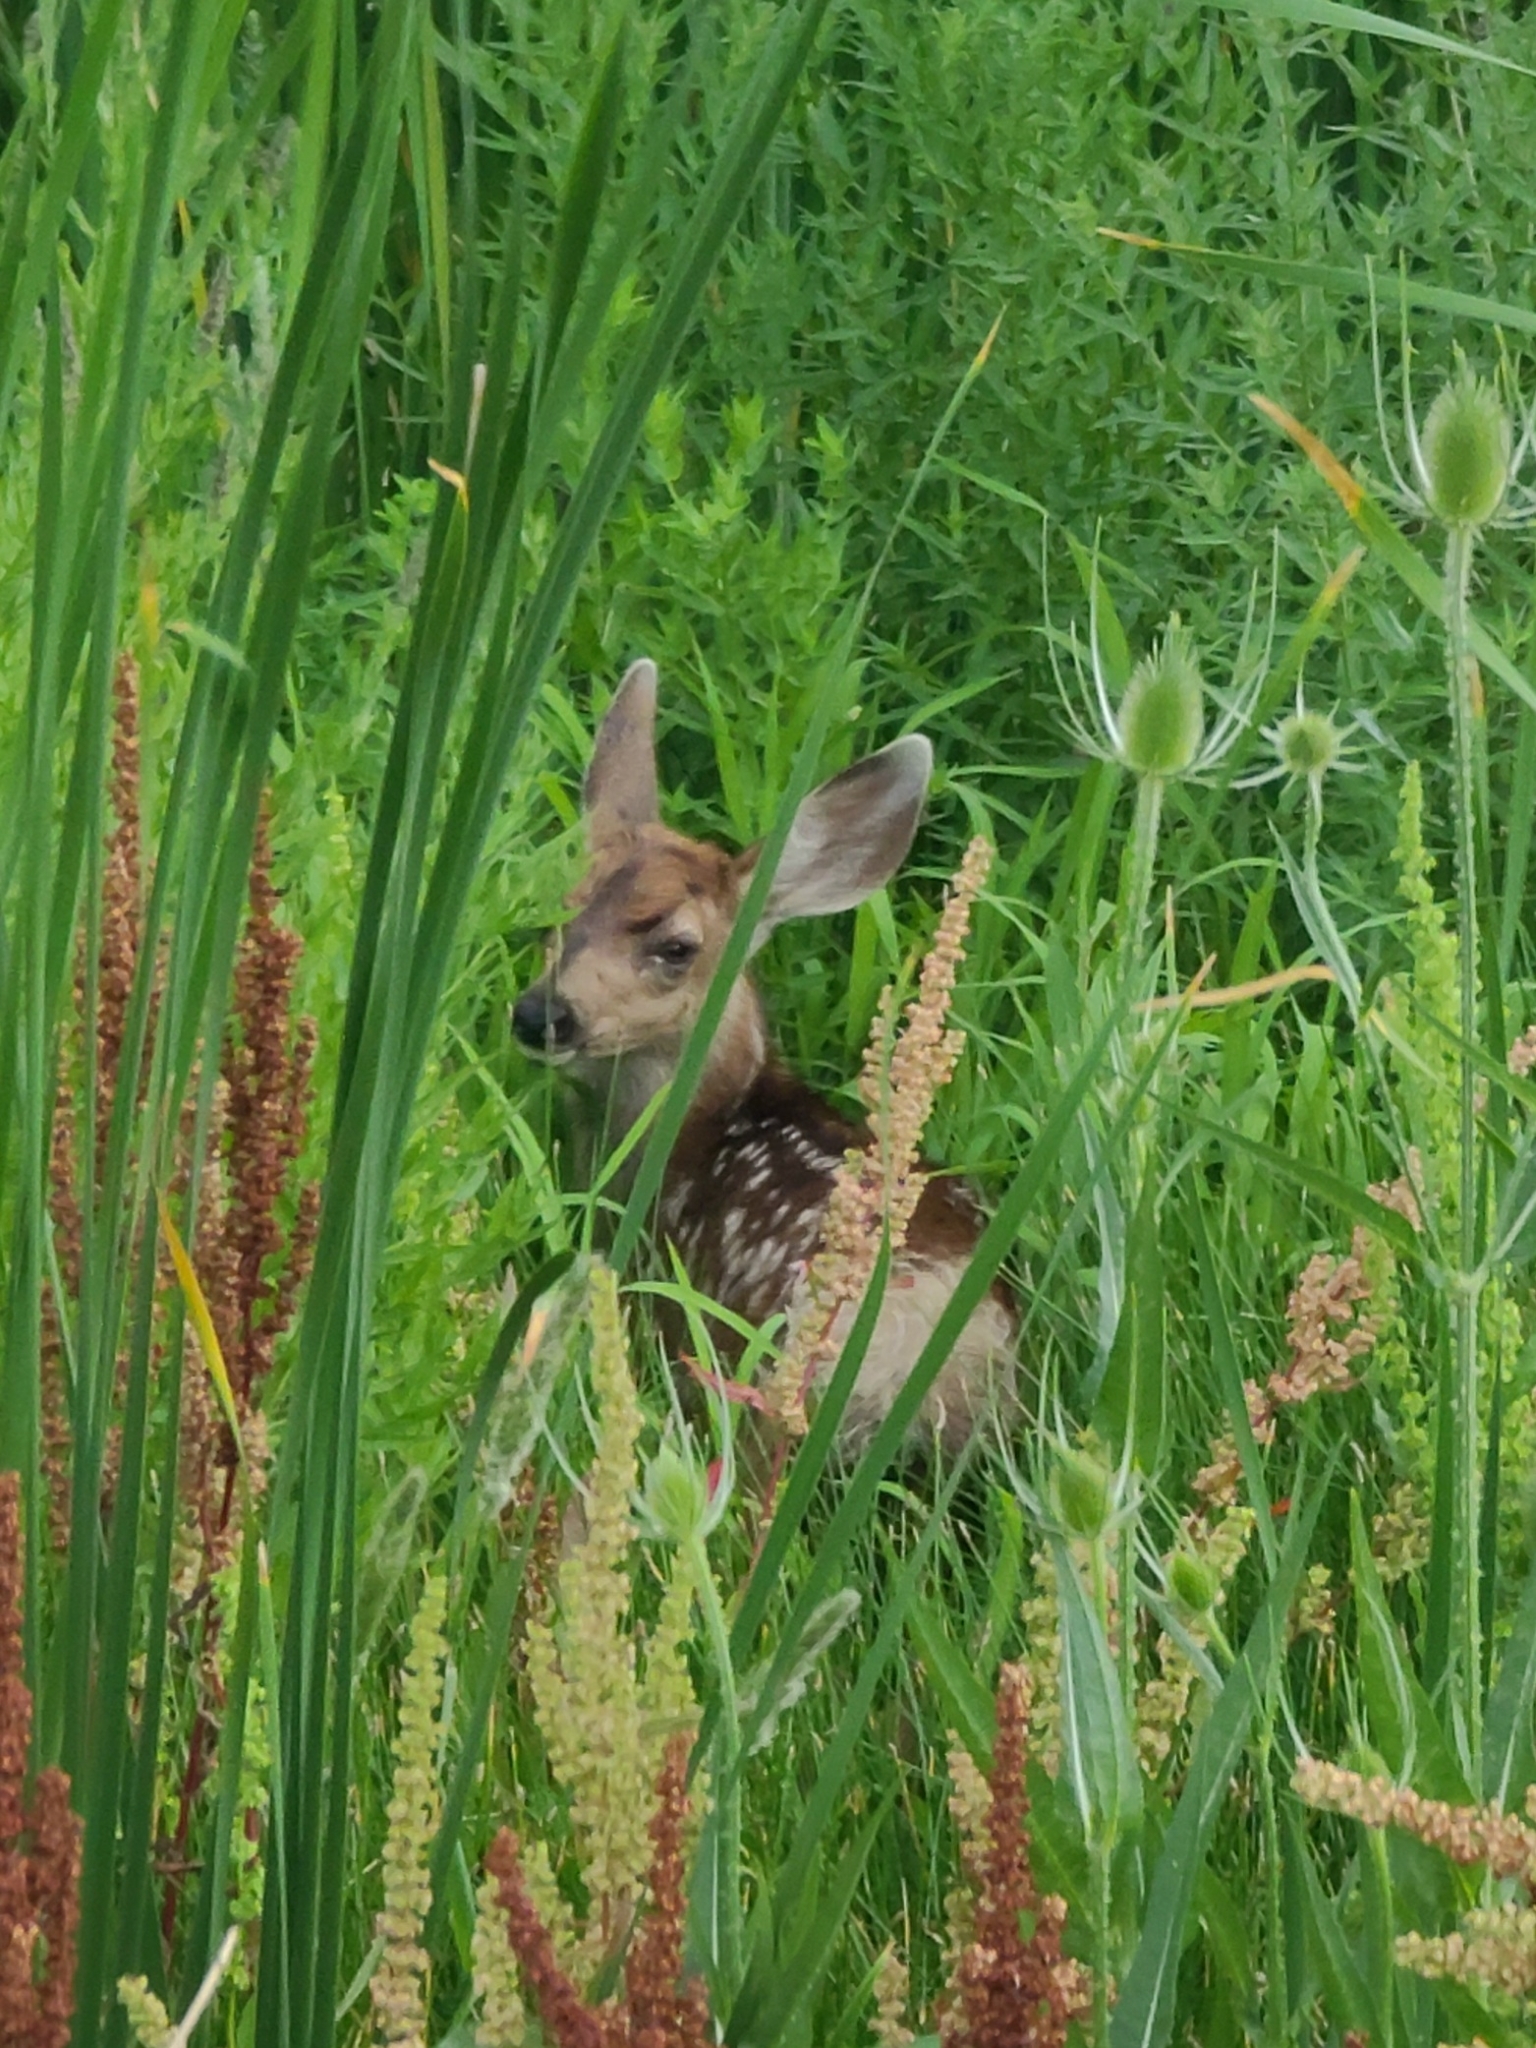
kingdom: Animalia
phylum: Chordata
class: Mammalia
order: Artiodactyla
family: Cervidae
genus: Odocoileus
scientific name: Odocoileus hemionus
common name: Mule deer
